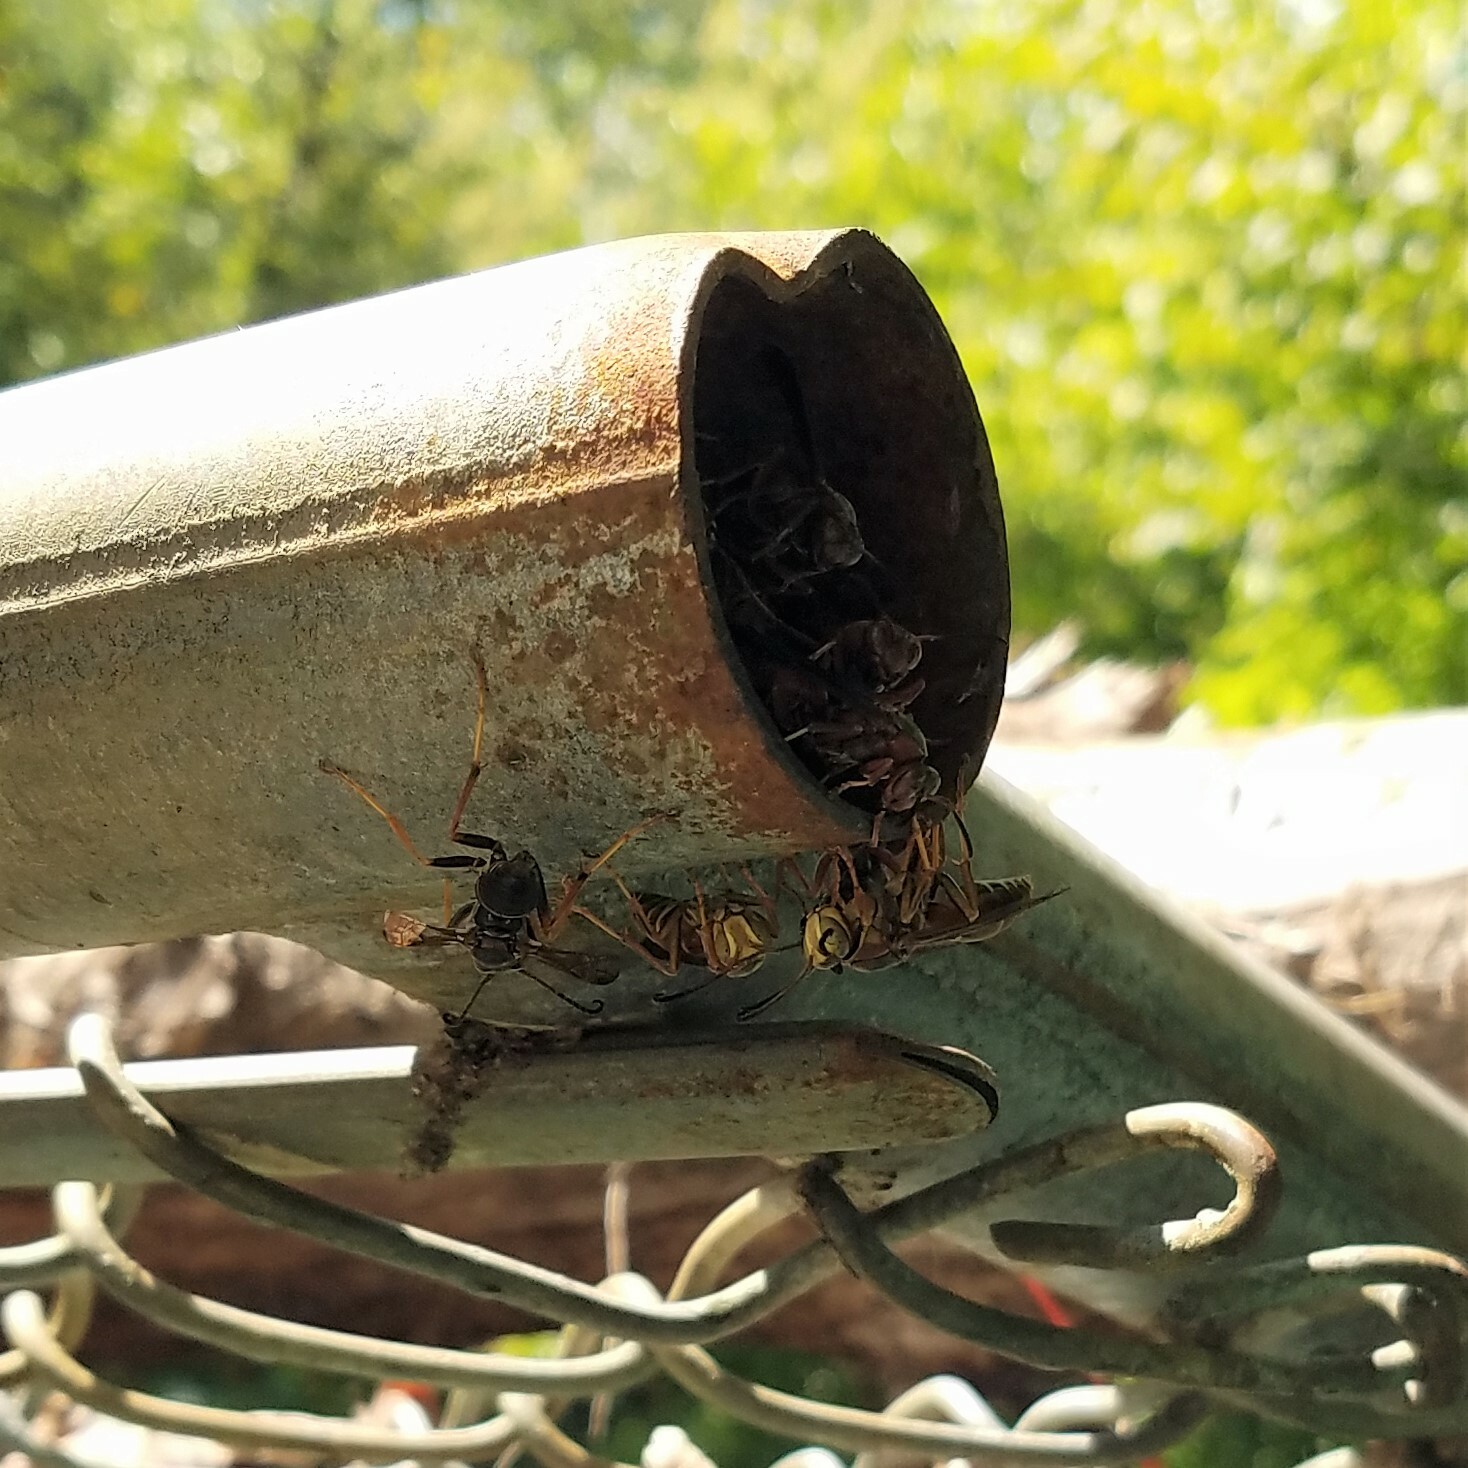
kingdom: Animalia
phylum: Arthropoda
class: Insecta
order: Hymenoptera
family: Eumenidae
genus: Polistes
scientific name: Polistes fuscatus
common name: Dark paper wasp
